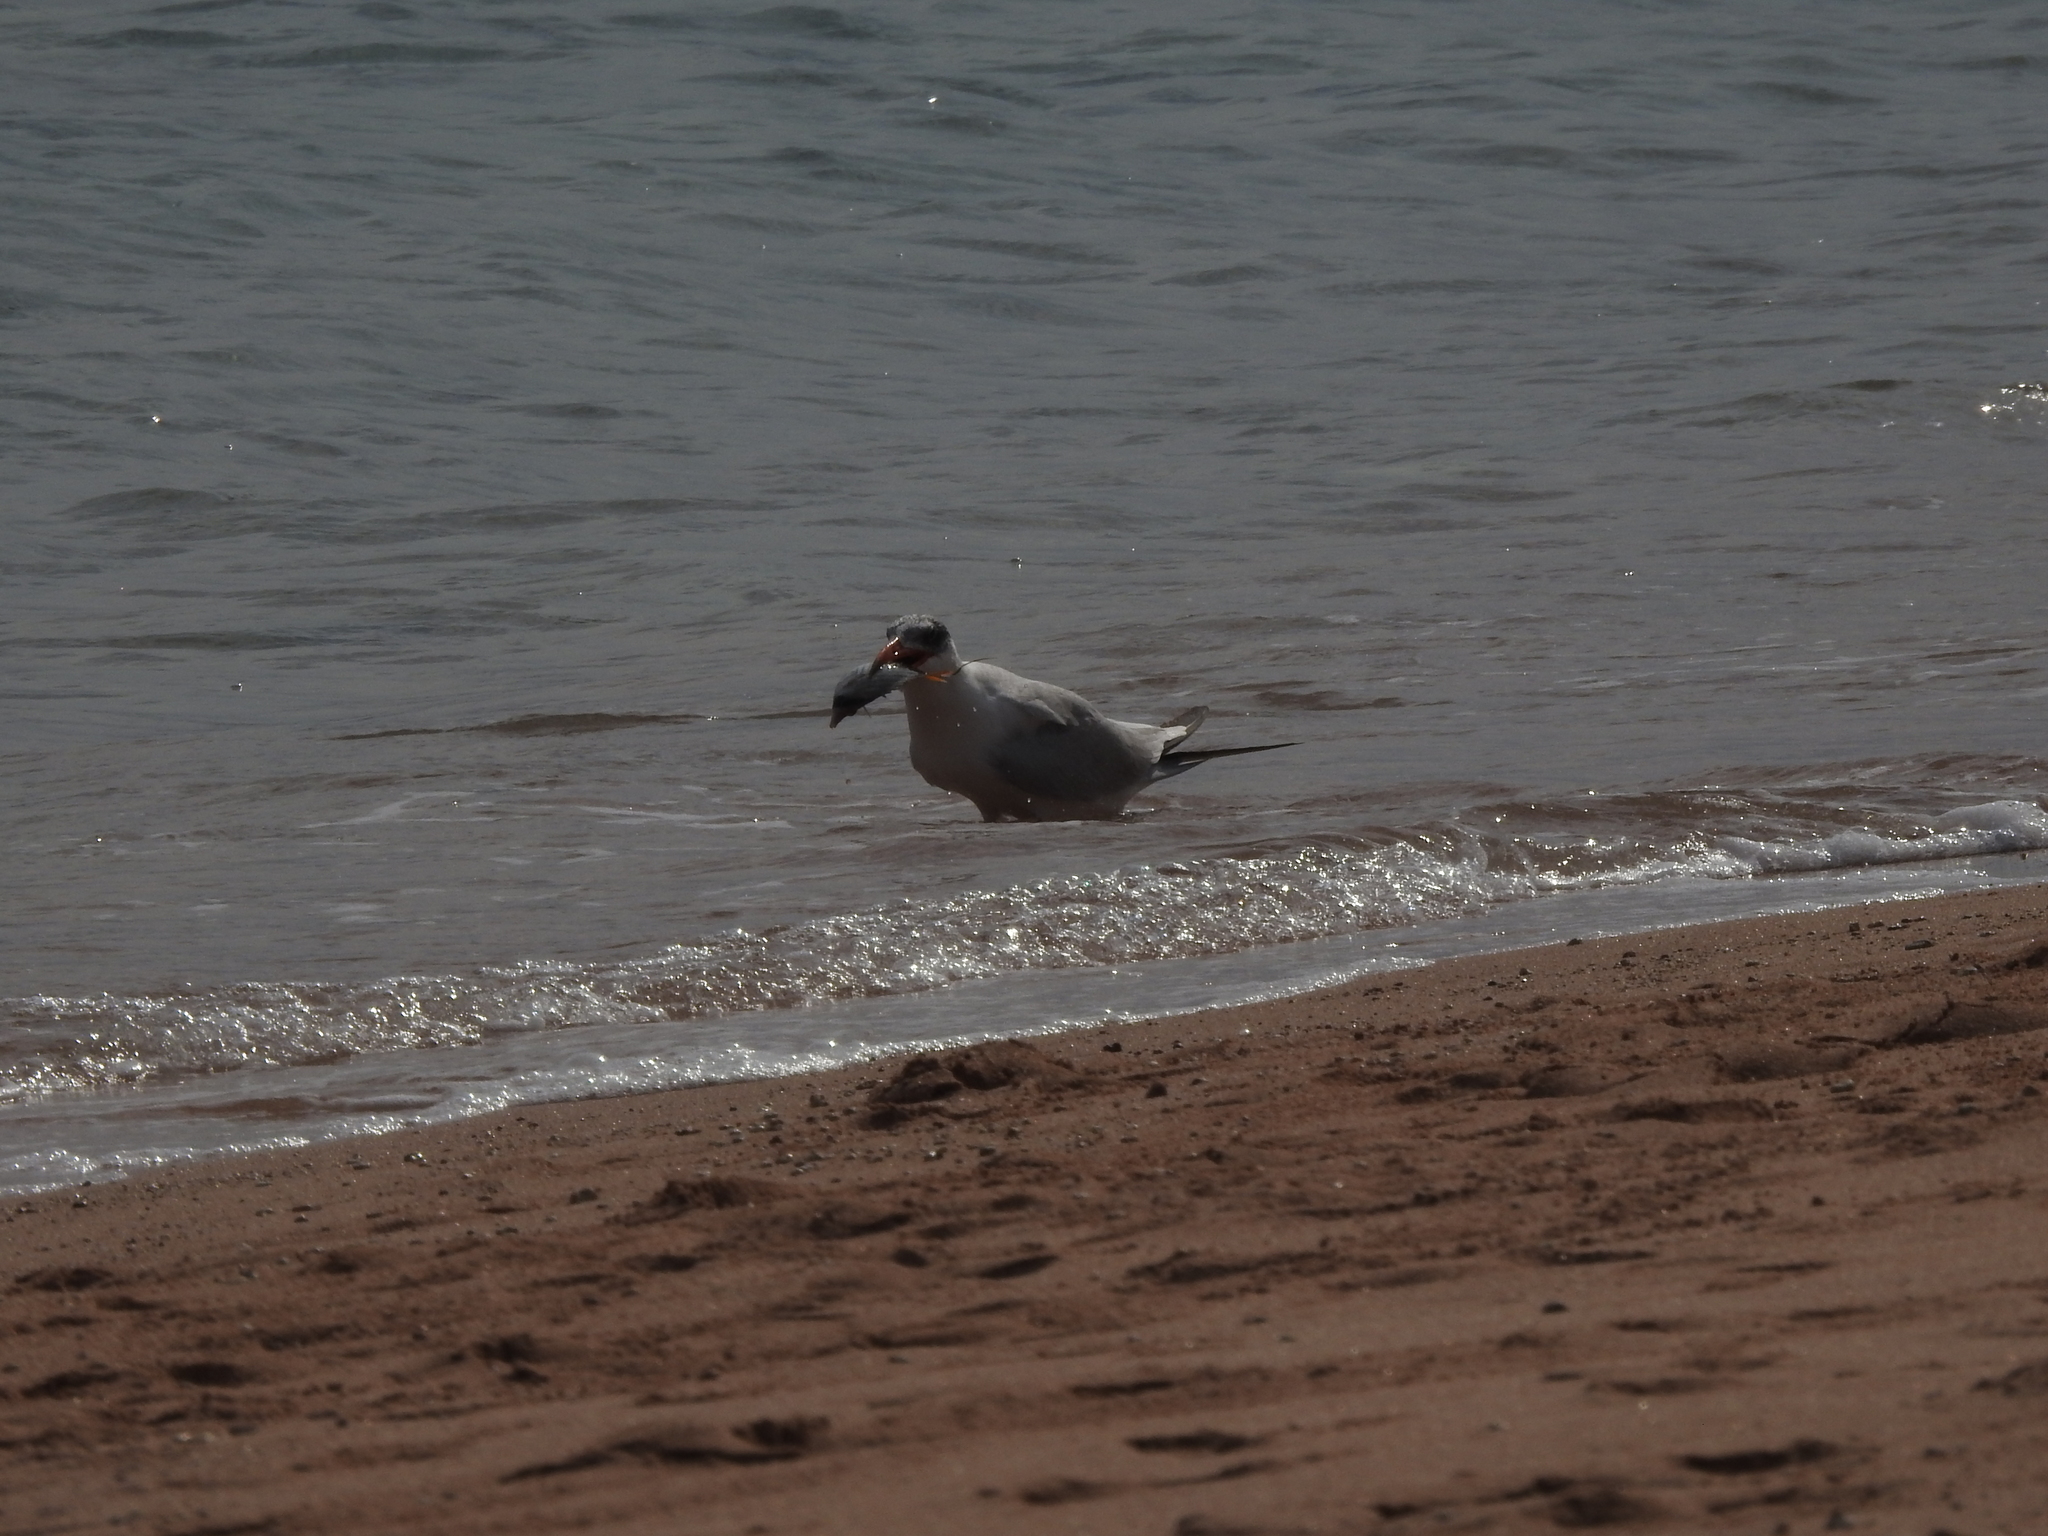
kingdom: Animalia
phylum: Chordata
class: Aves
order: Charadriiformes
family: Laridae
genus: Hydroprogne
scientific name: Hydroprogne caspia
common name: Caspian tern
